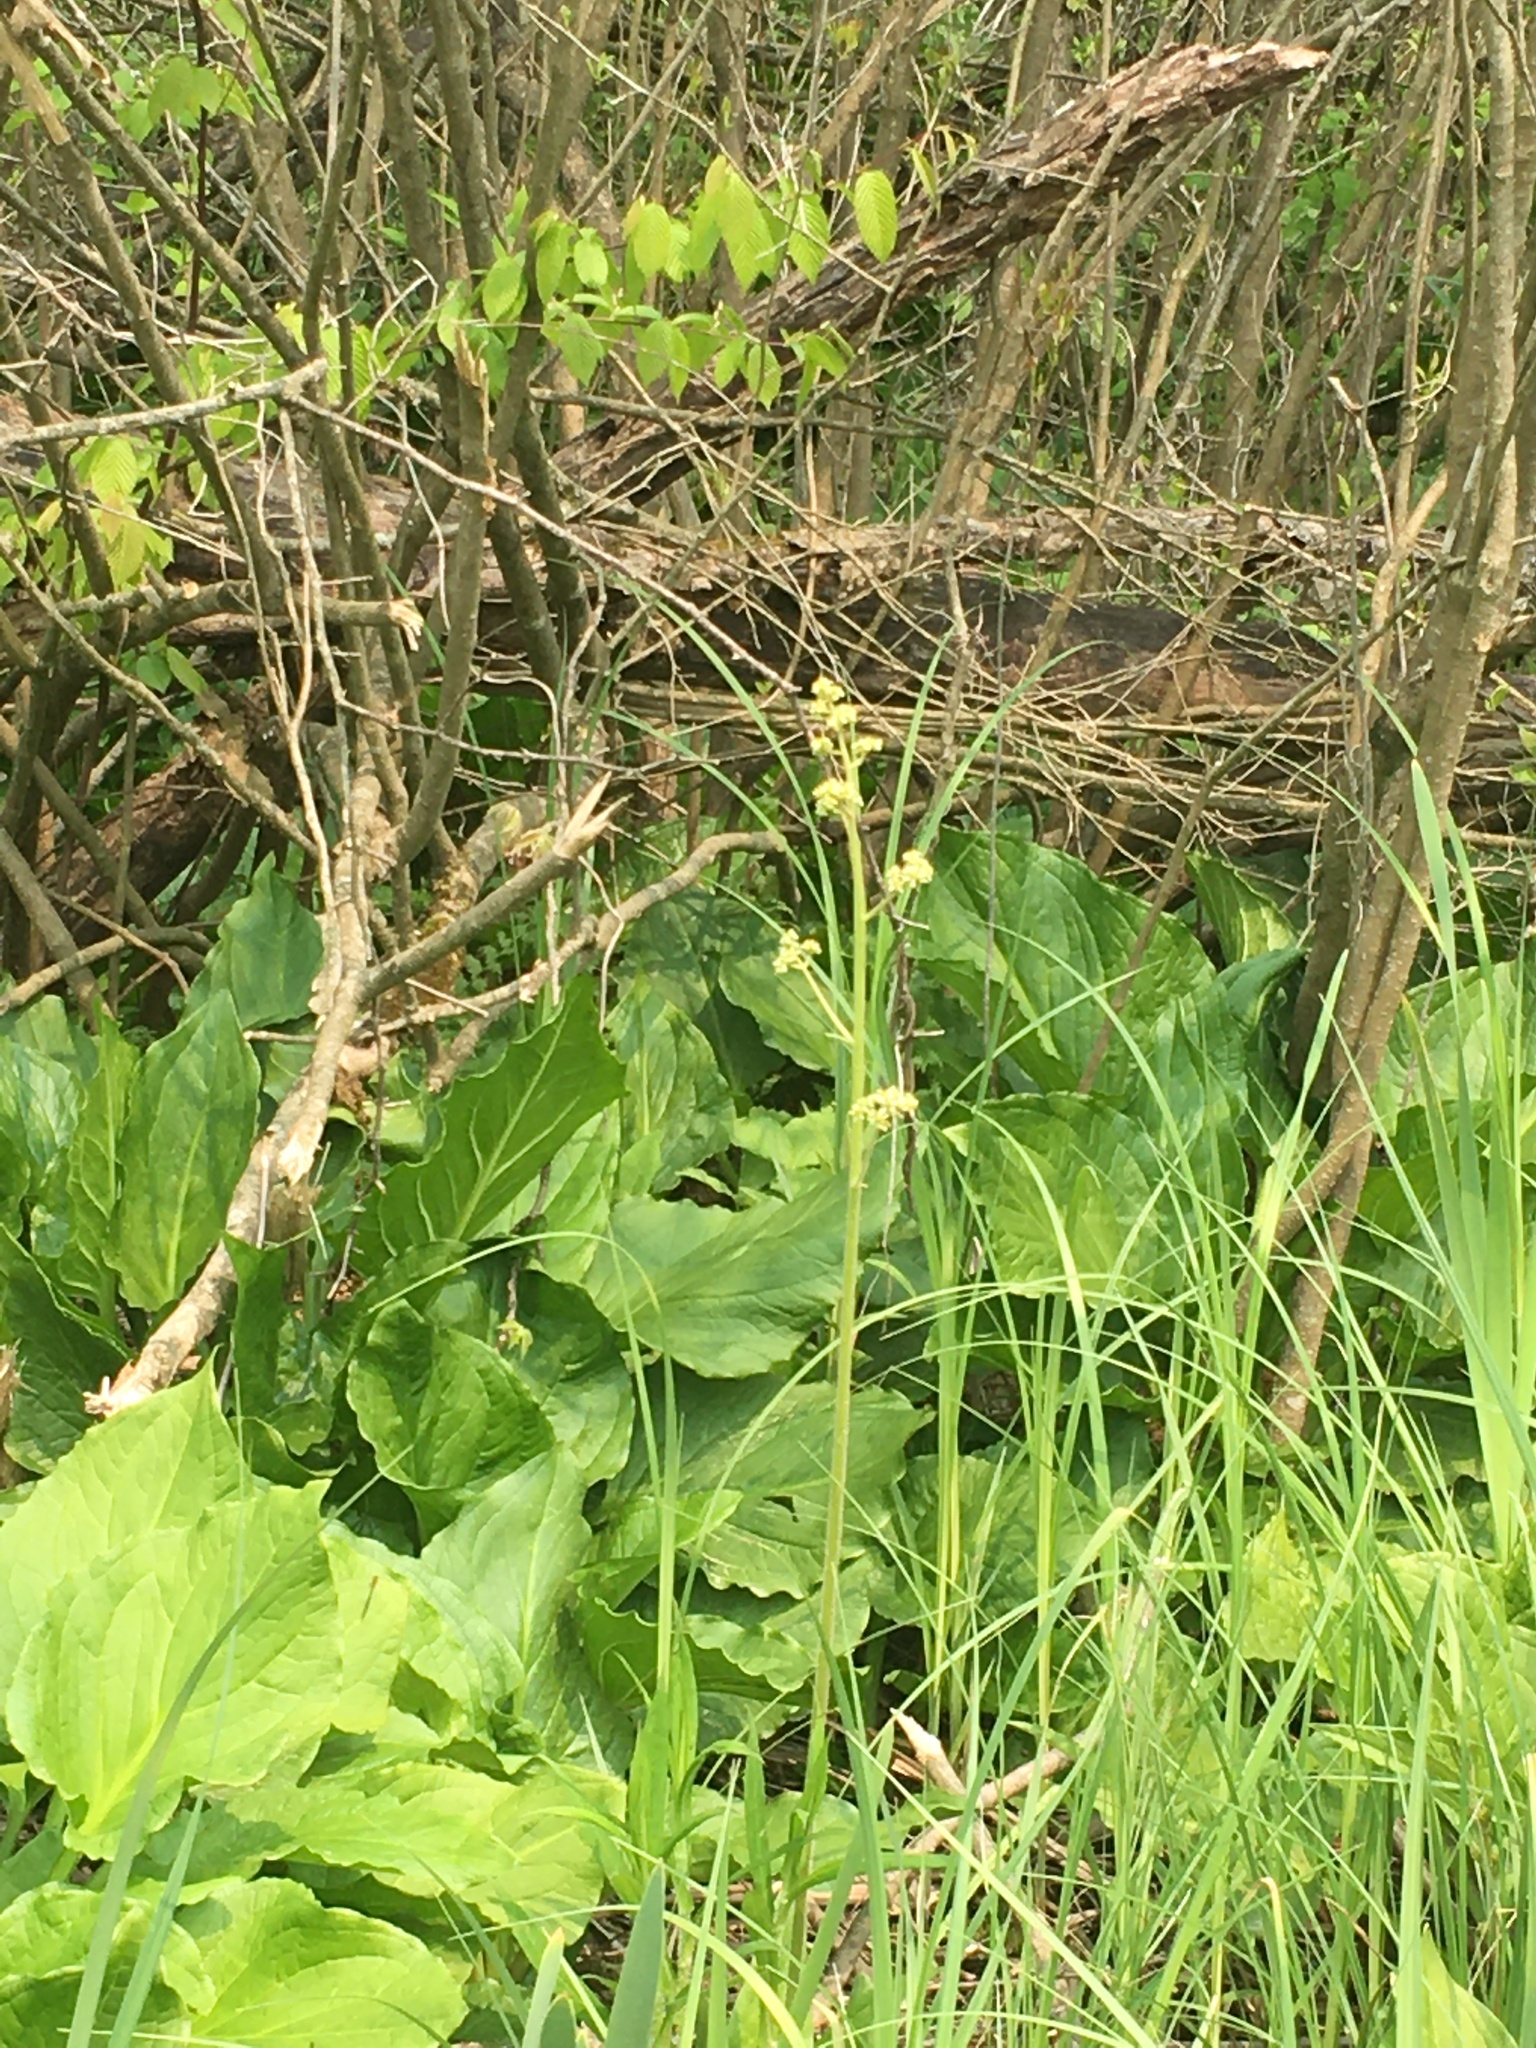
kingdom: Plantae
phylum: Tracheophyta
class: Magnoliopsida
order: Saxifragales
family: Saxifragaceae
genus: Micranthes
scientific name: Micranthes pensylvanica
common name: Marsh saxifrage
